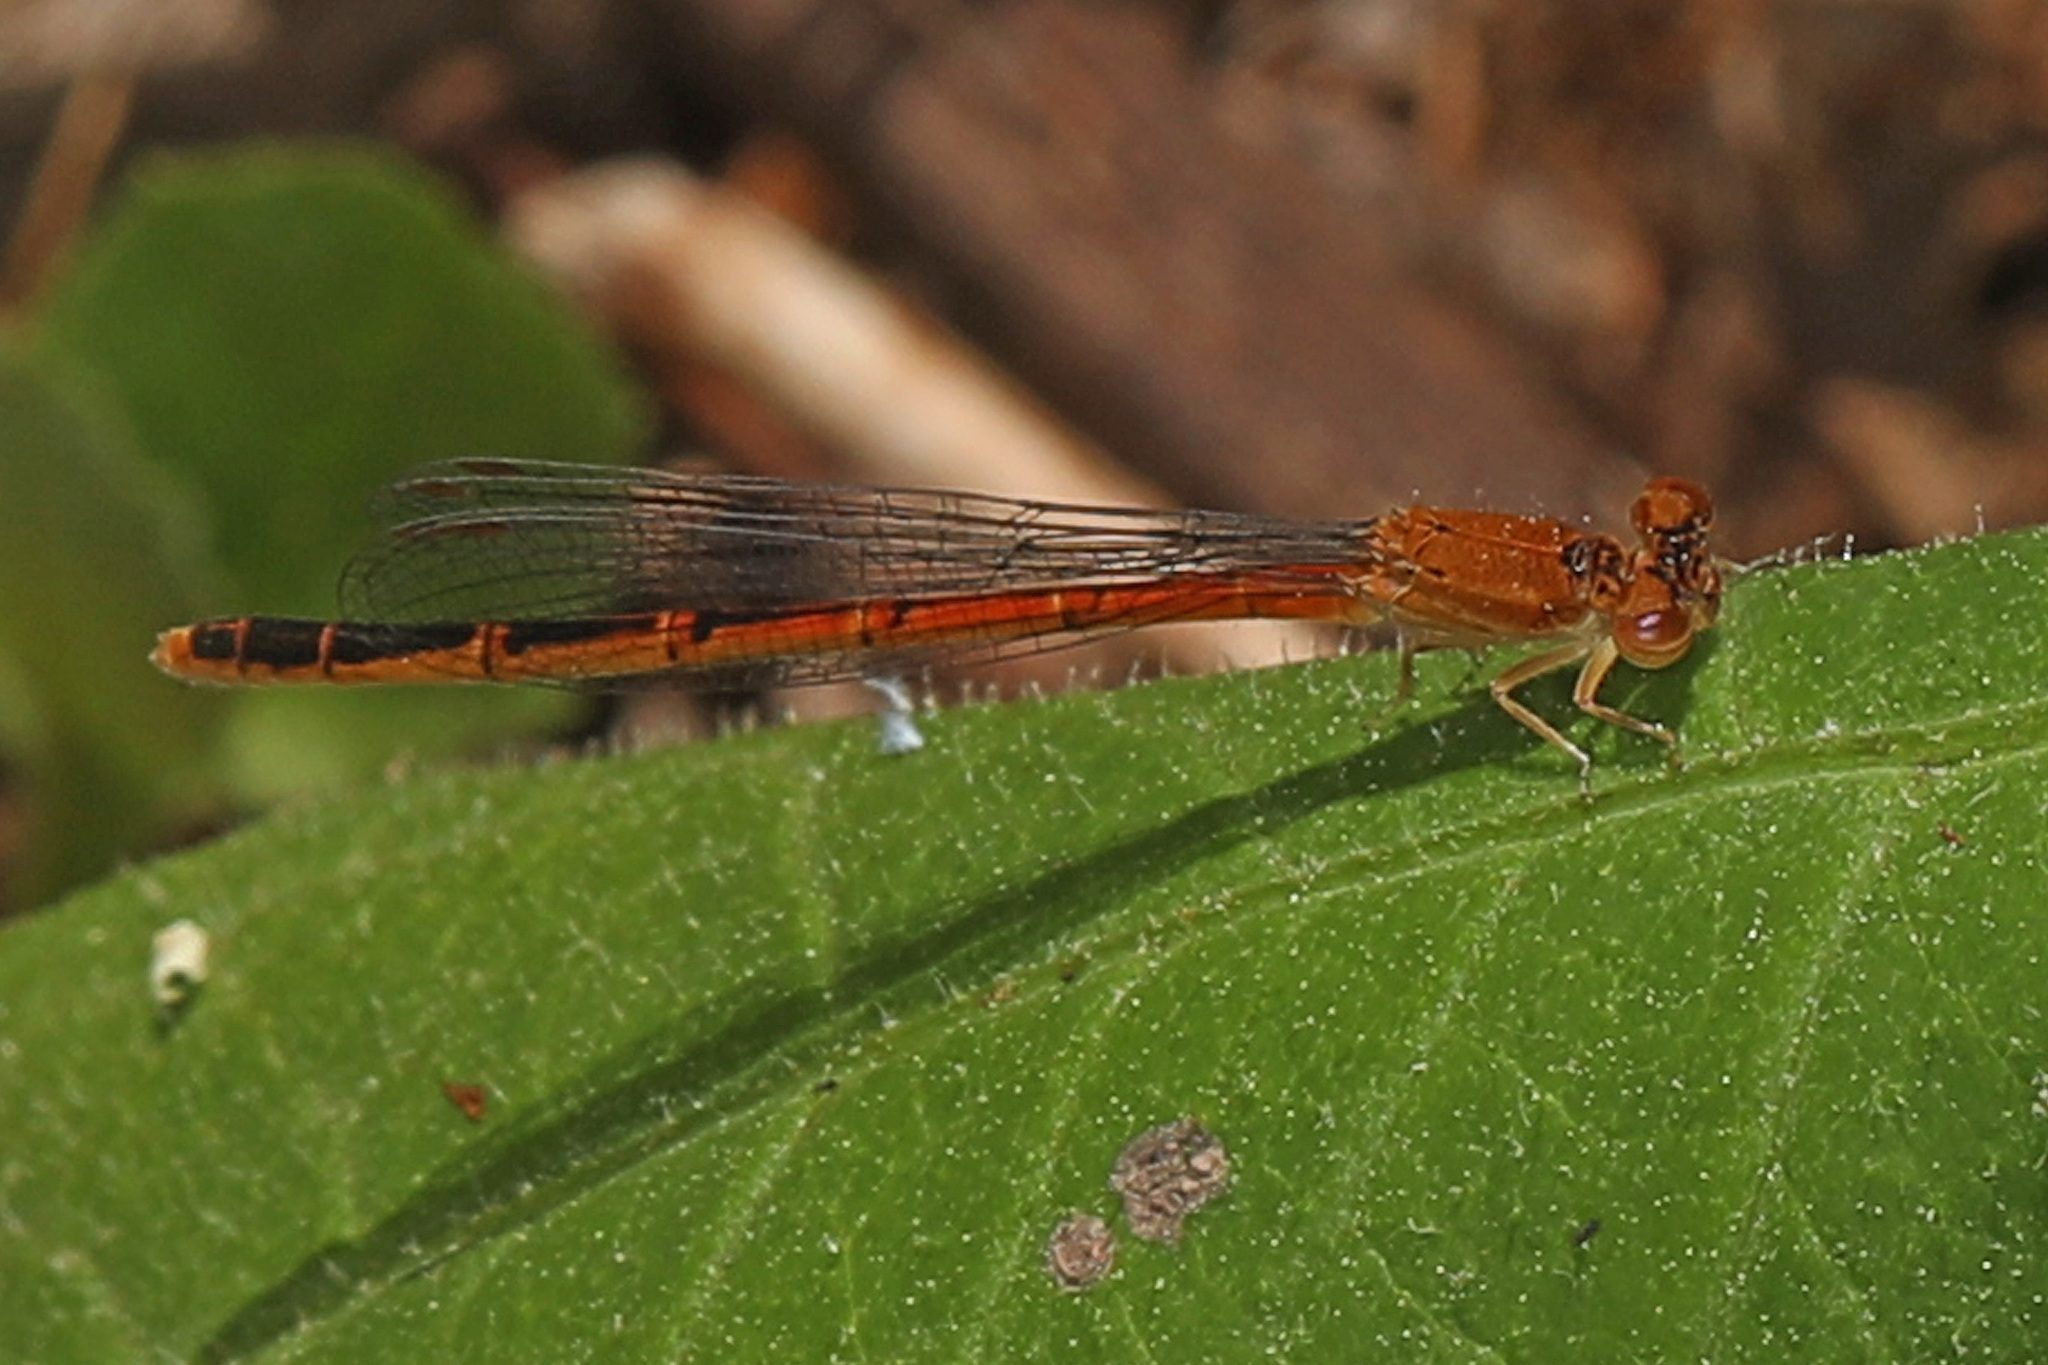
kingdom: Animalia
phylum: Arthropoda
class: Insecta
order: Odonata
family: Coenagrionidae
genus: Amphiagrion
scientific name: Amphiagrion saucium
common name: Eastern red damsel
